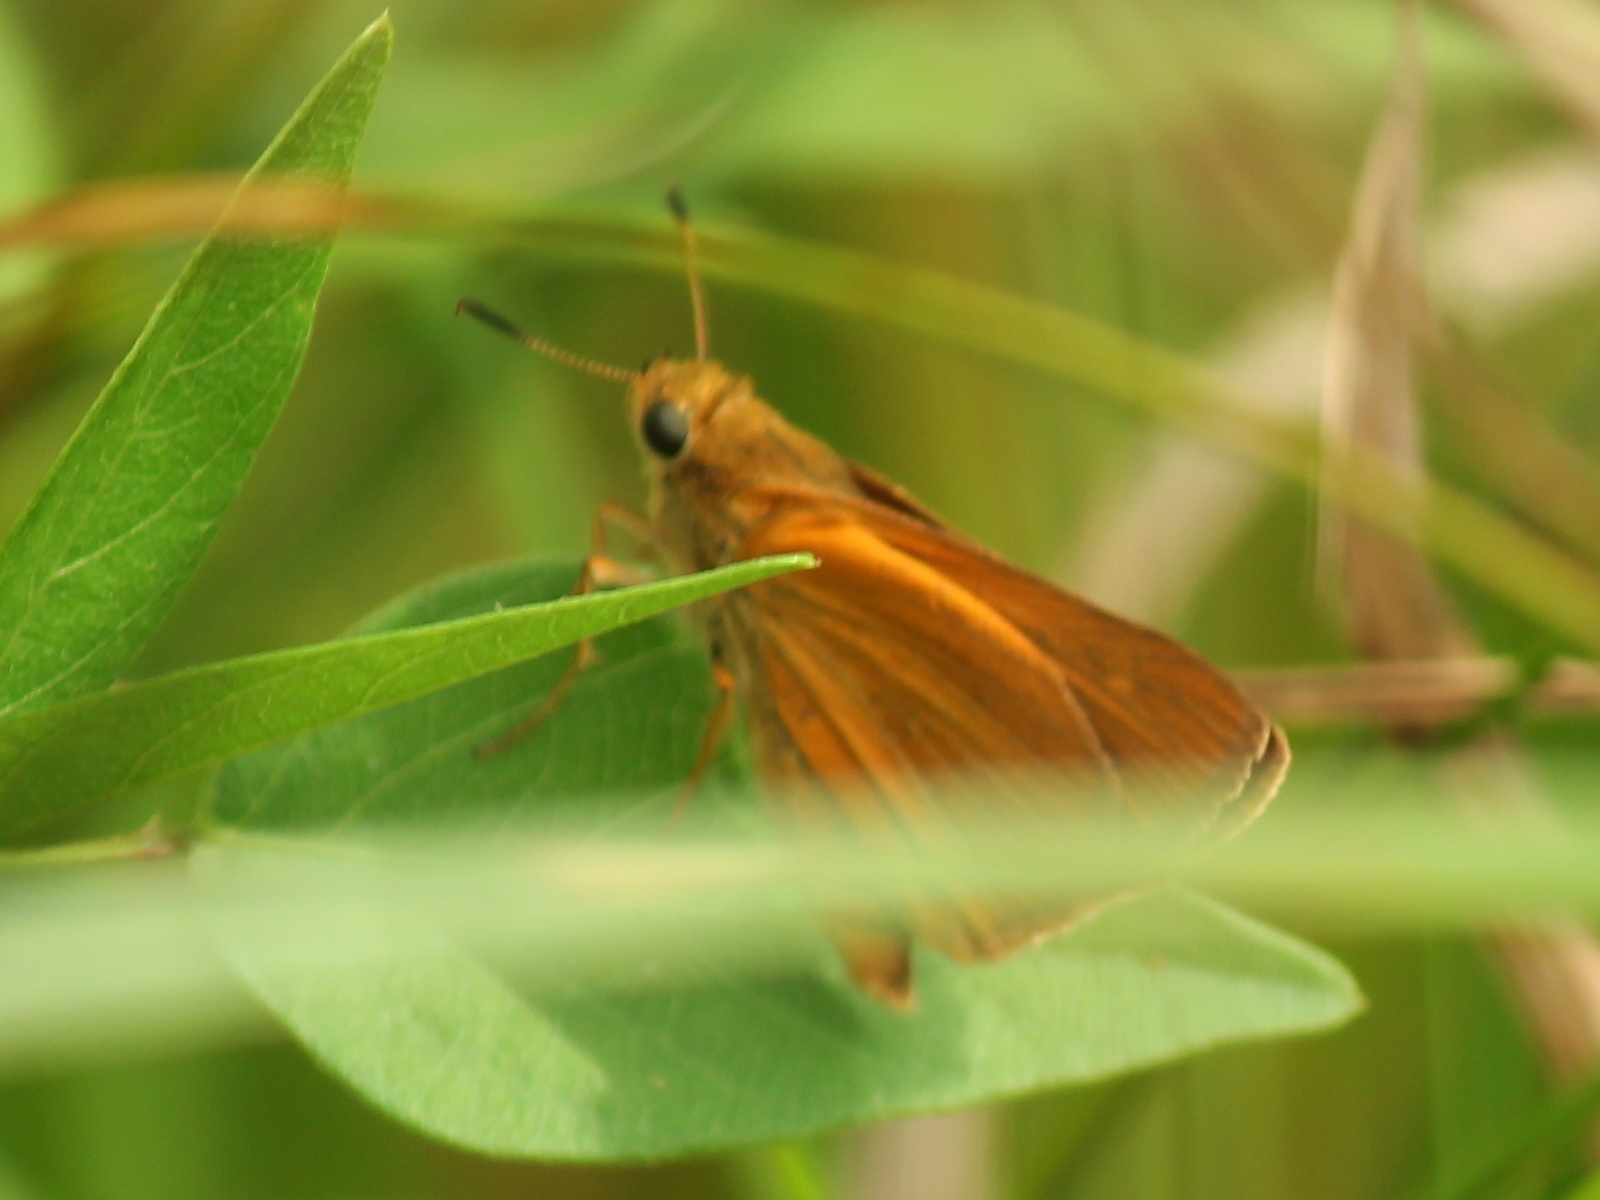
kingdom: Animalia
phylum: Arthropoda
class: Insecta
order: Lepidoptera
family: Hesperiidae
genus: Euphyes
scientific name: Euphyes dion
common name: Dion skipper
